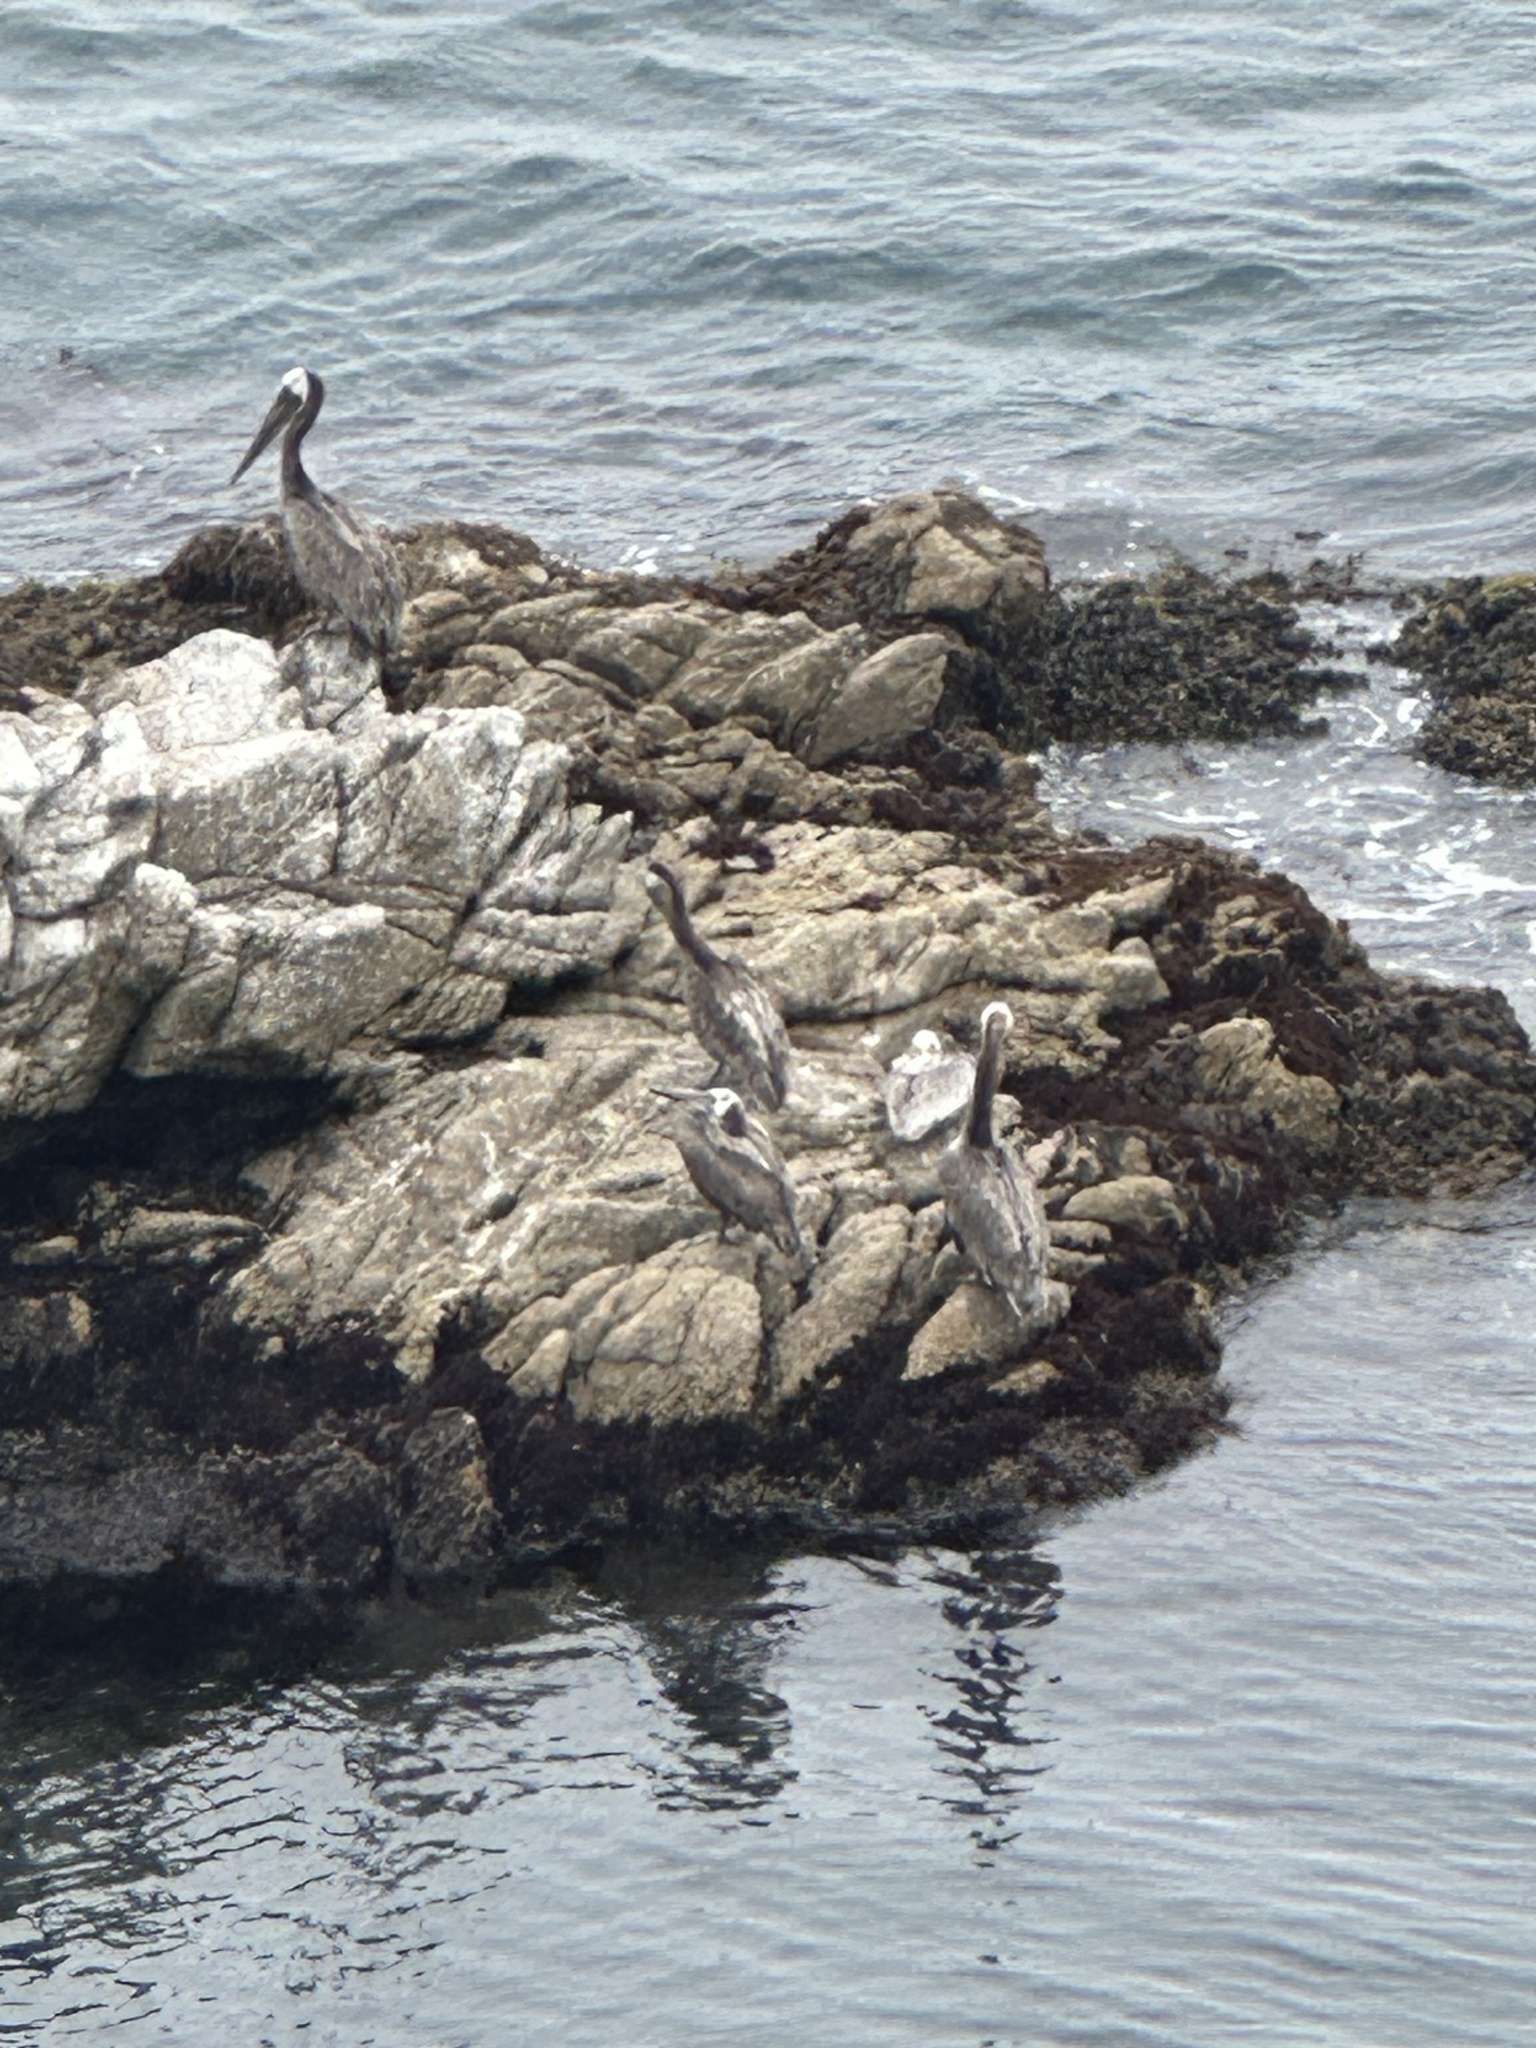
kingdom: Animalia
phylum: Chordata
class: Aves
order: Pelecaniformes
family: Pelecanidae
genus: Pelecanus
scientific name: Pelecanus occidentalis
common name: Brown pelican
